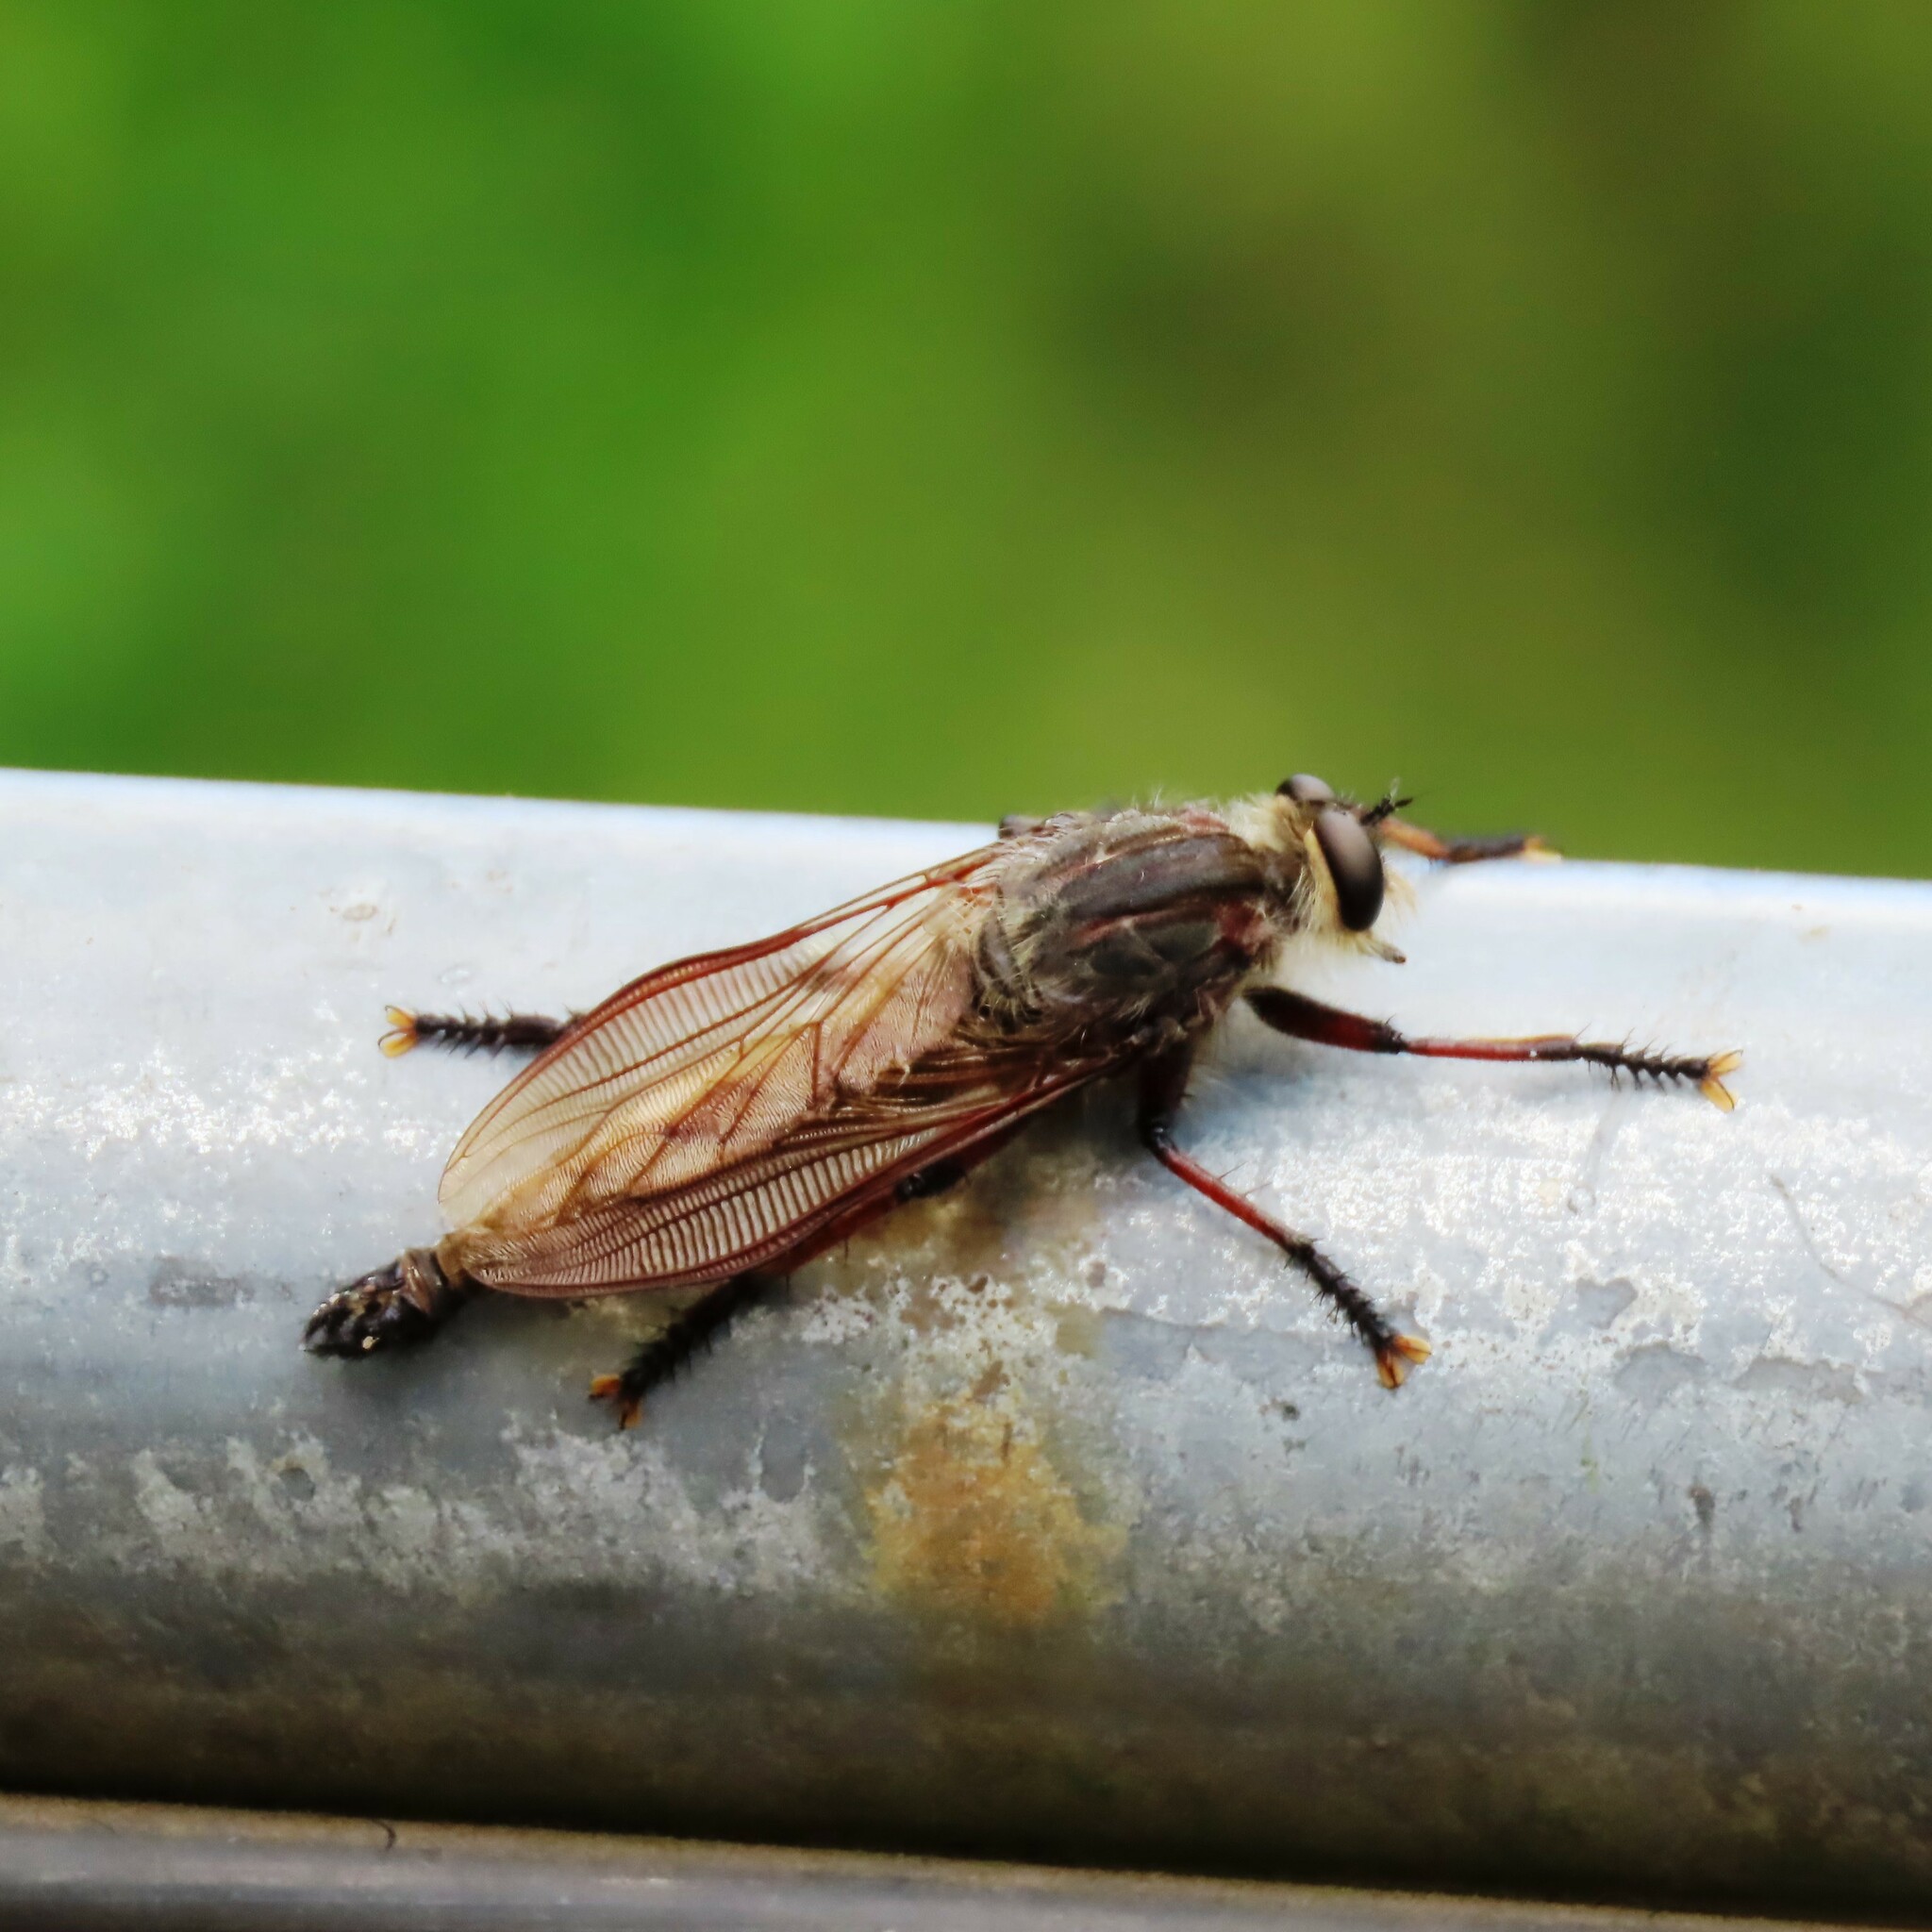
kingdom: Animalia
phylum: Arthropoda
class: Insecta
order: Diptera
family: Asilidae
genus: Neoaratus
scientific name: Neoaratus hercules
